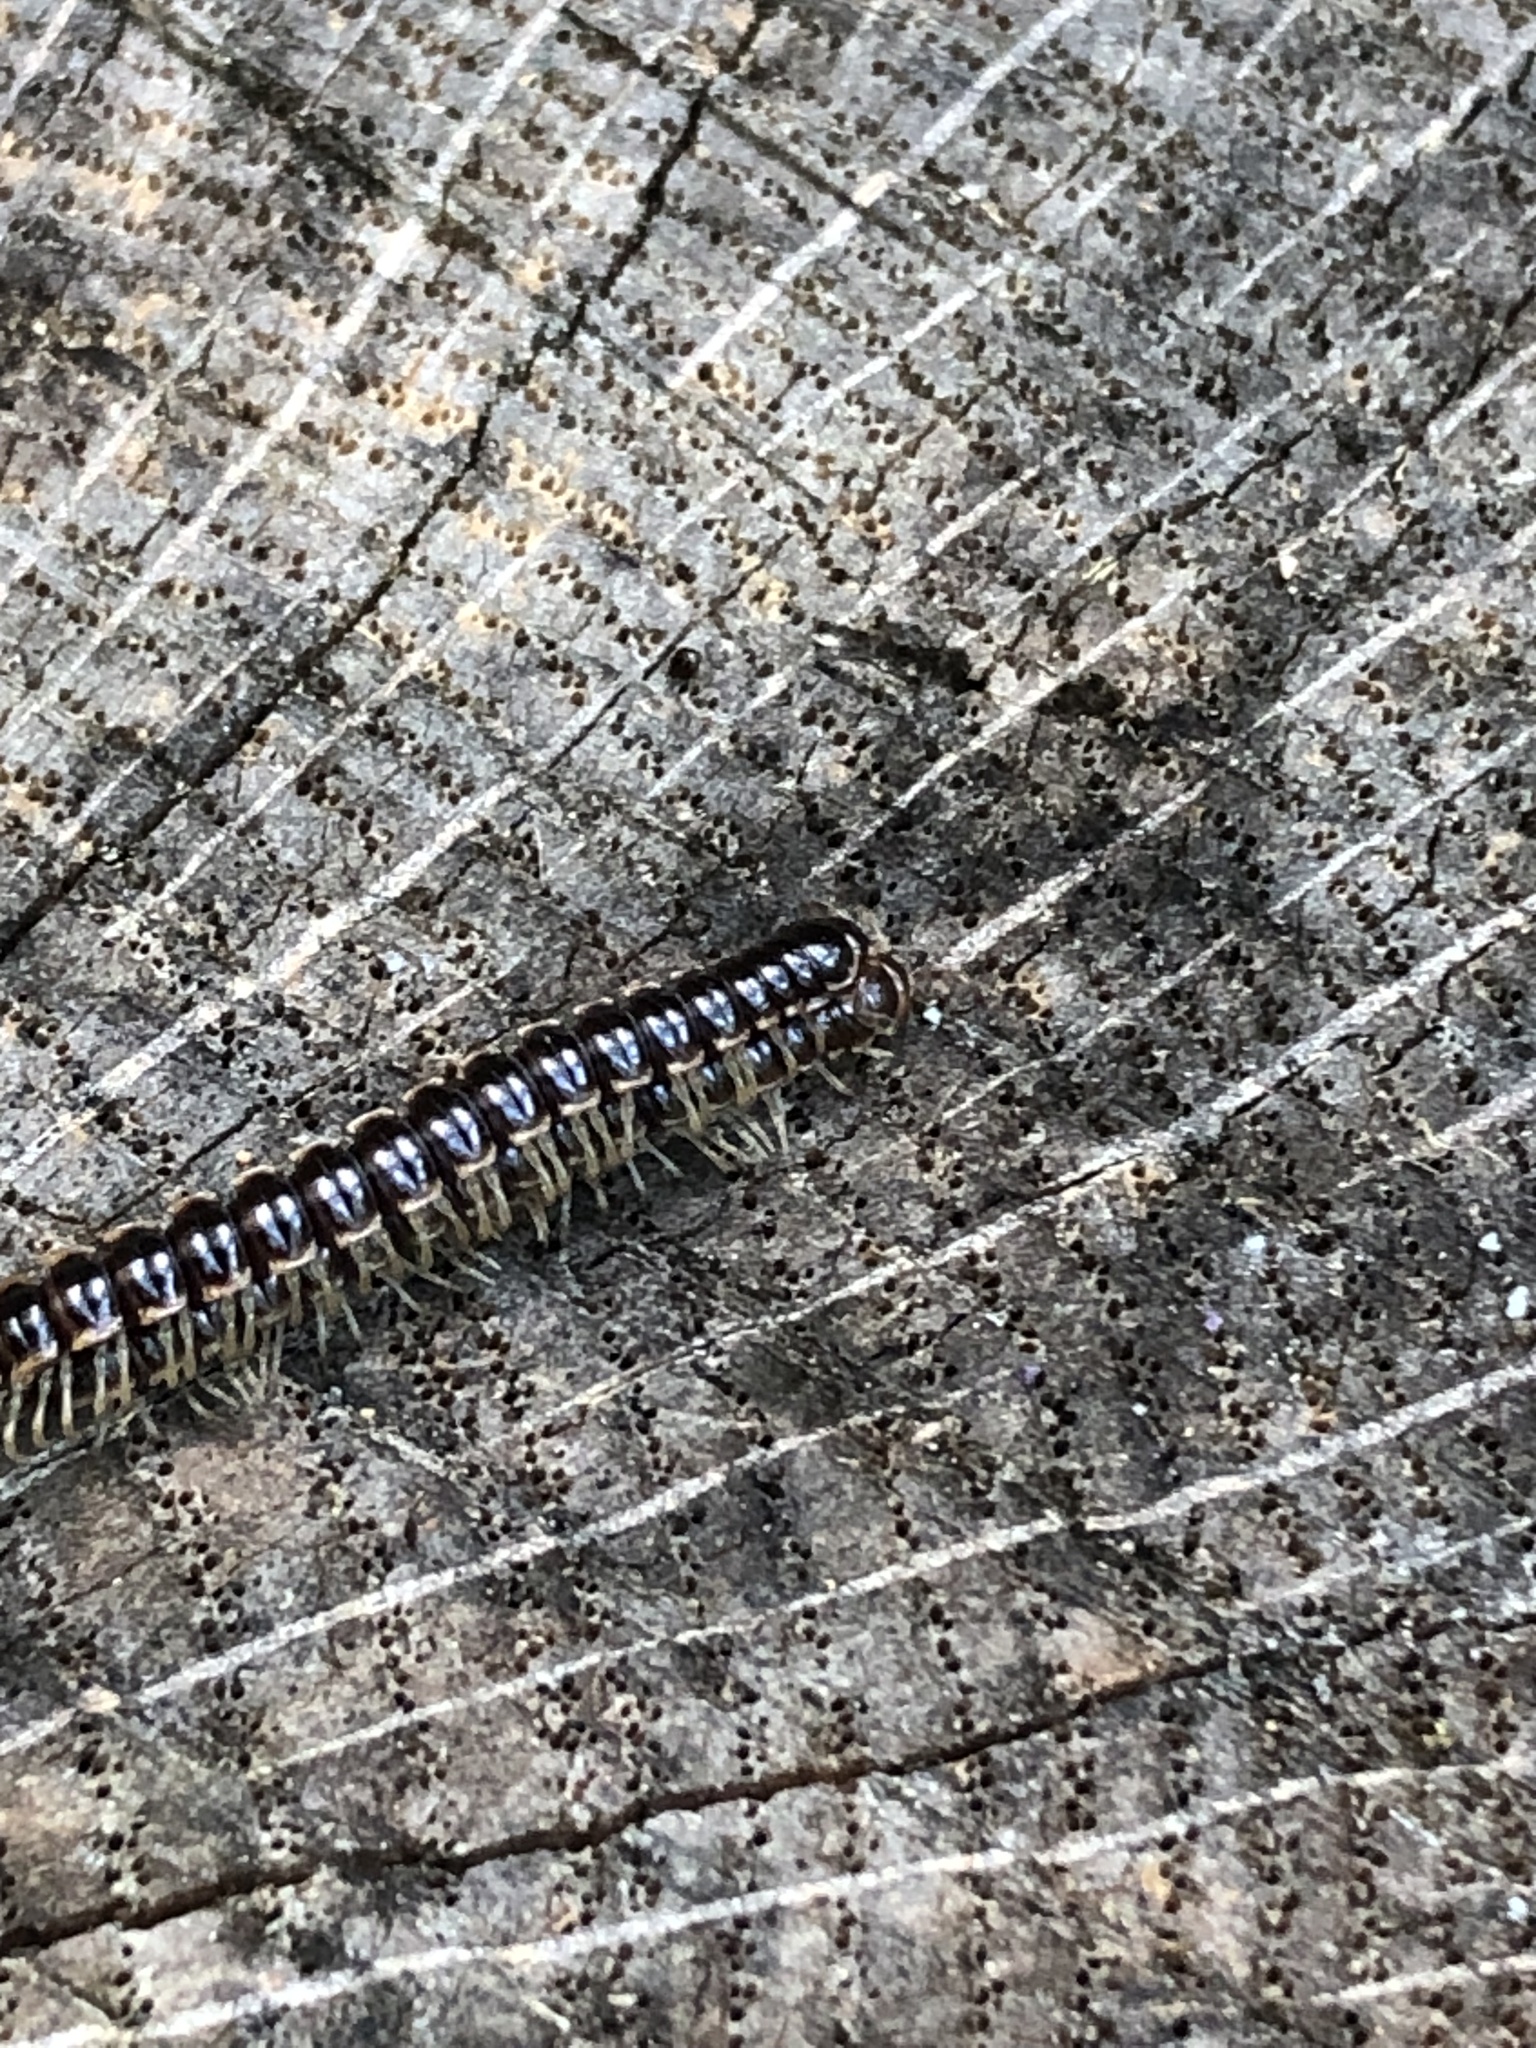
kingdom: Animalia
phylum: Arthropoda
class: Diplopoda
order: Polydesmida
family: Paradoxosomatidae
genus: Oxidus
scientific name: Oxidus gracilis
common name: Greenhouse millipede
